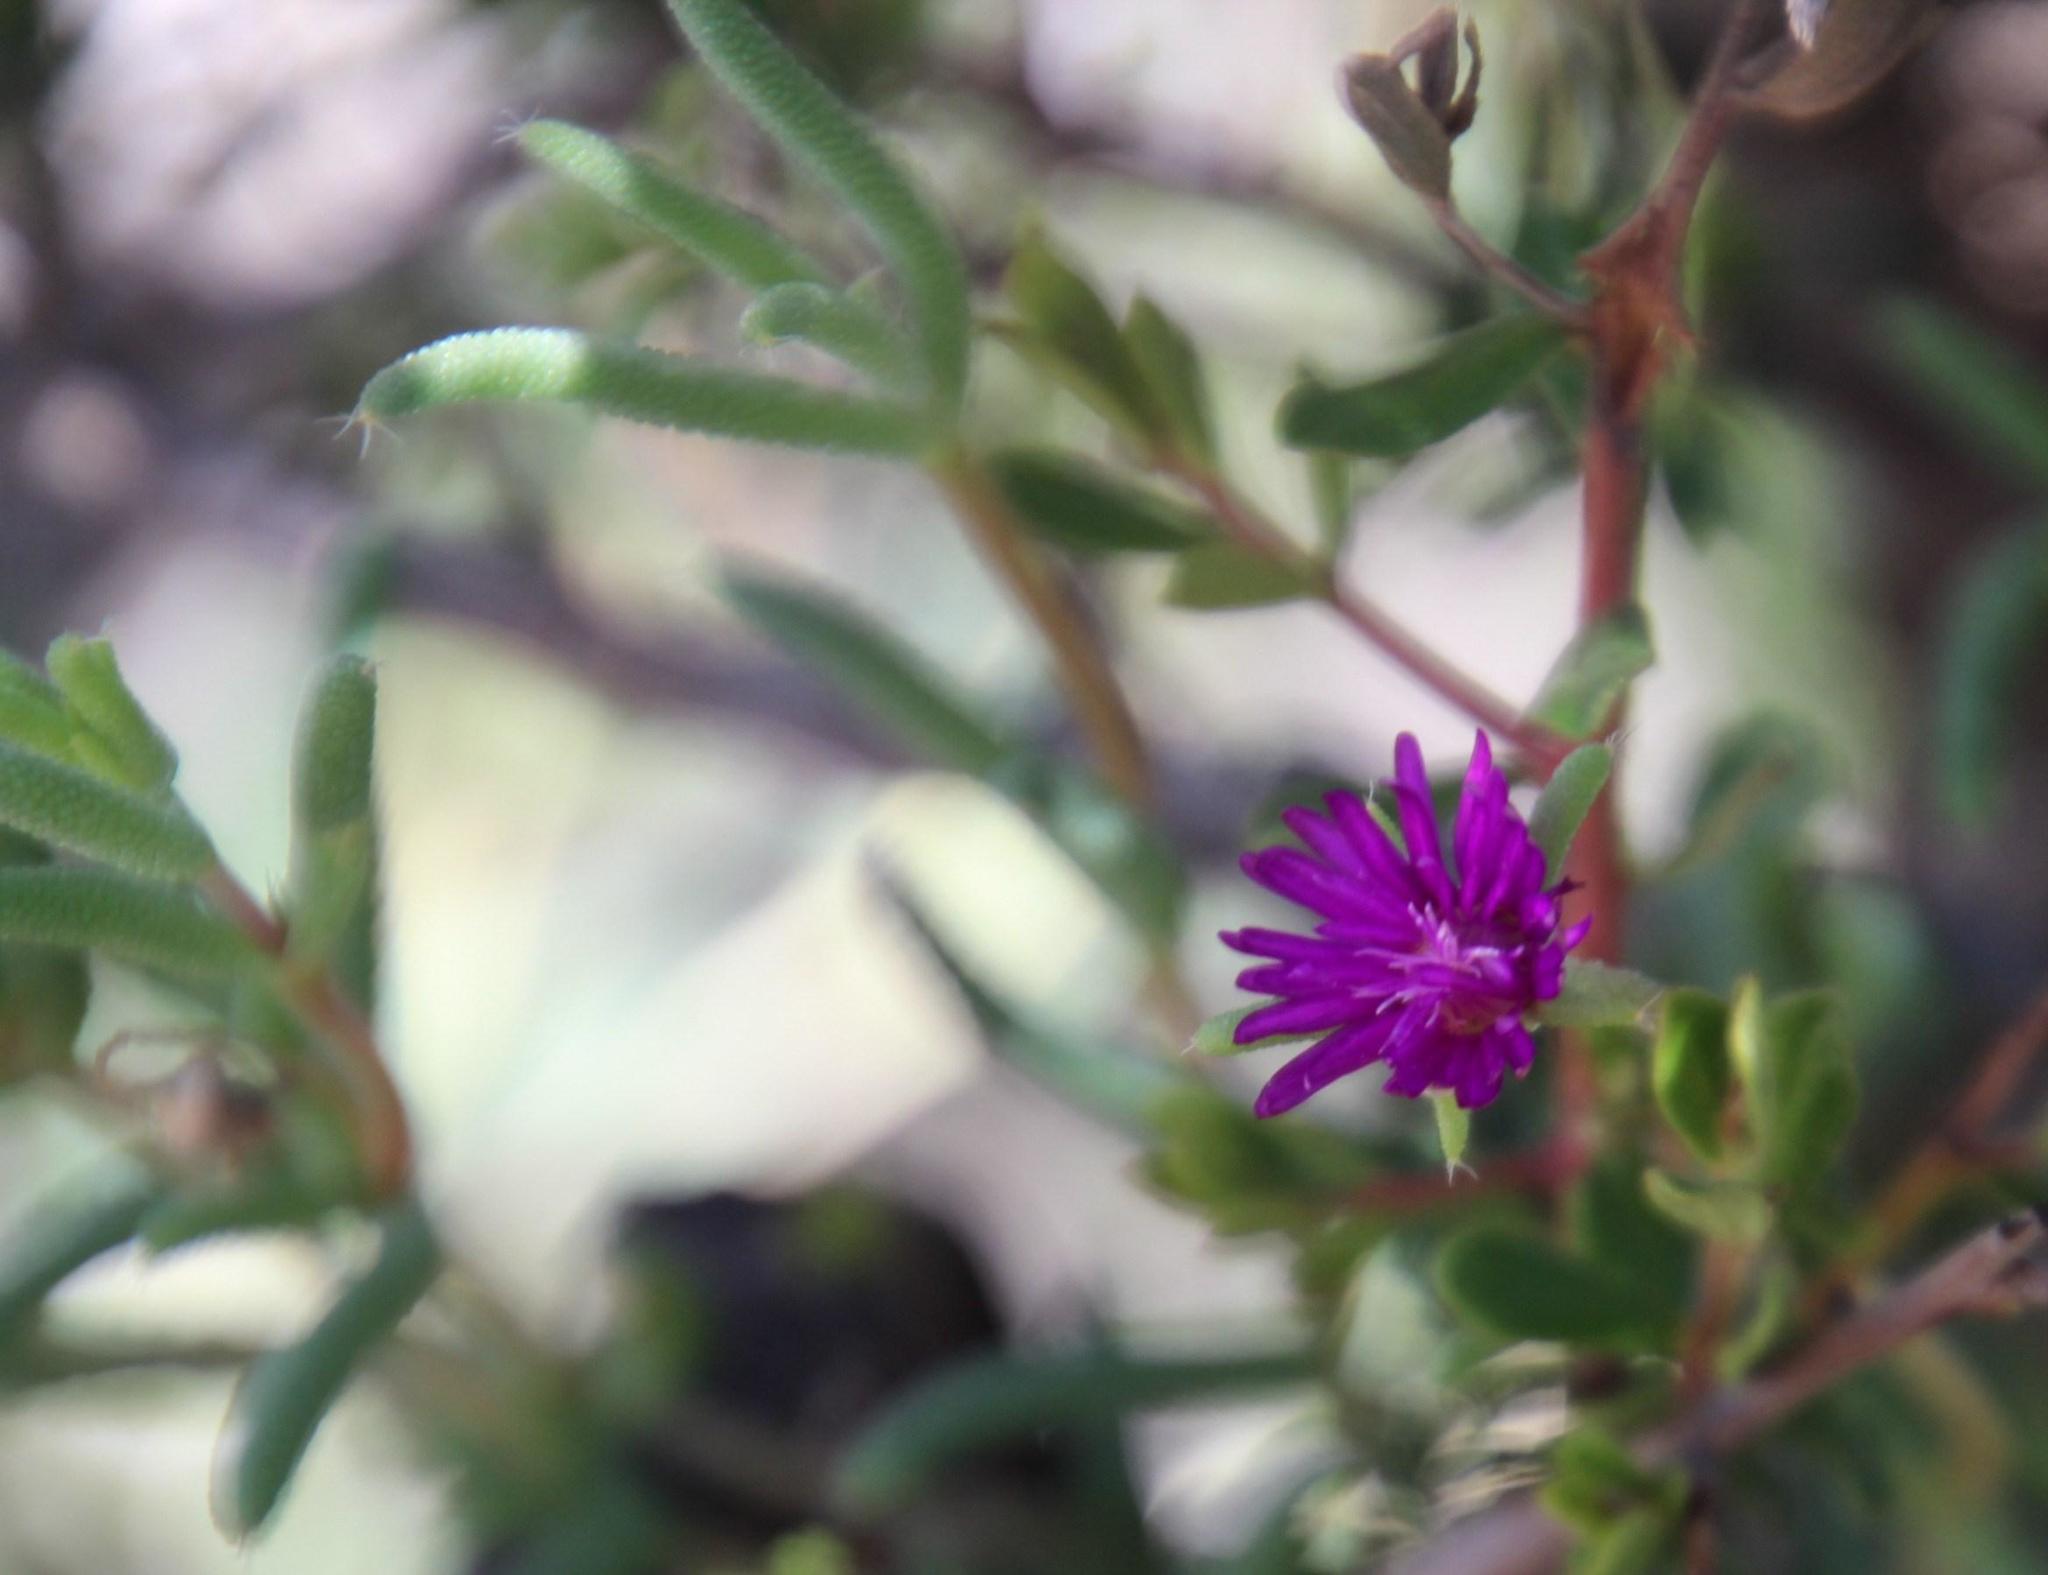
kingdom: Plantae
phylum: Tracheophyta
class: Magnoliopsida
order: Caryophyllales
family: Aizoaceae
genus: Trichodiadema
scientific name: Trichodiadema rogersiae
